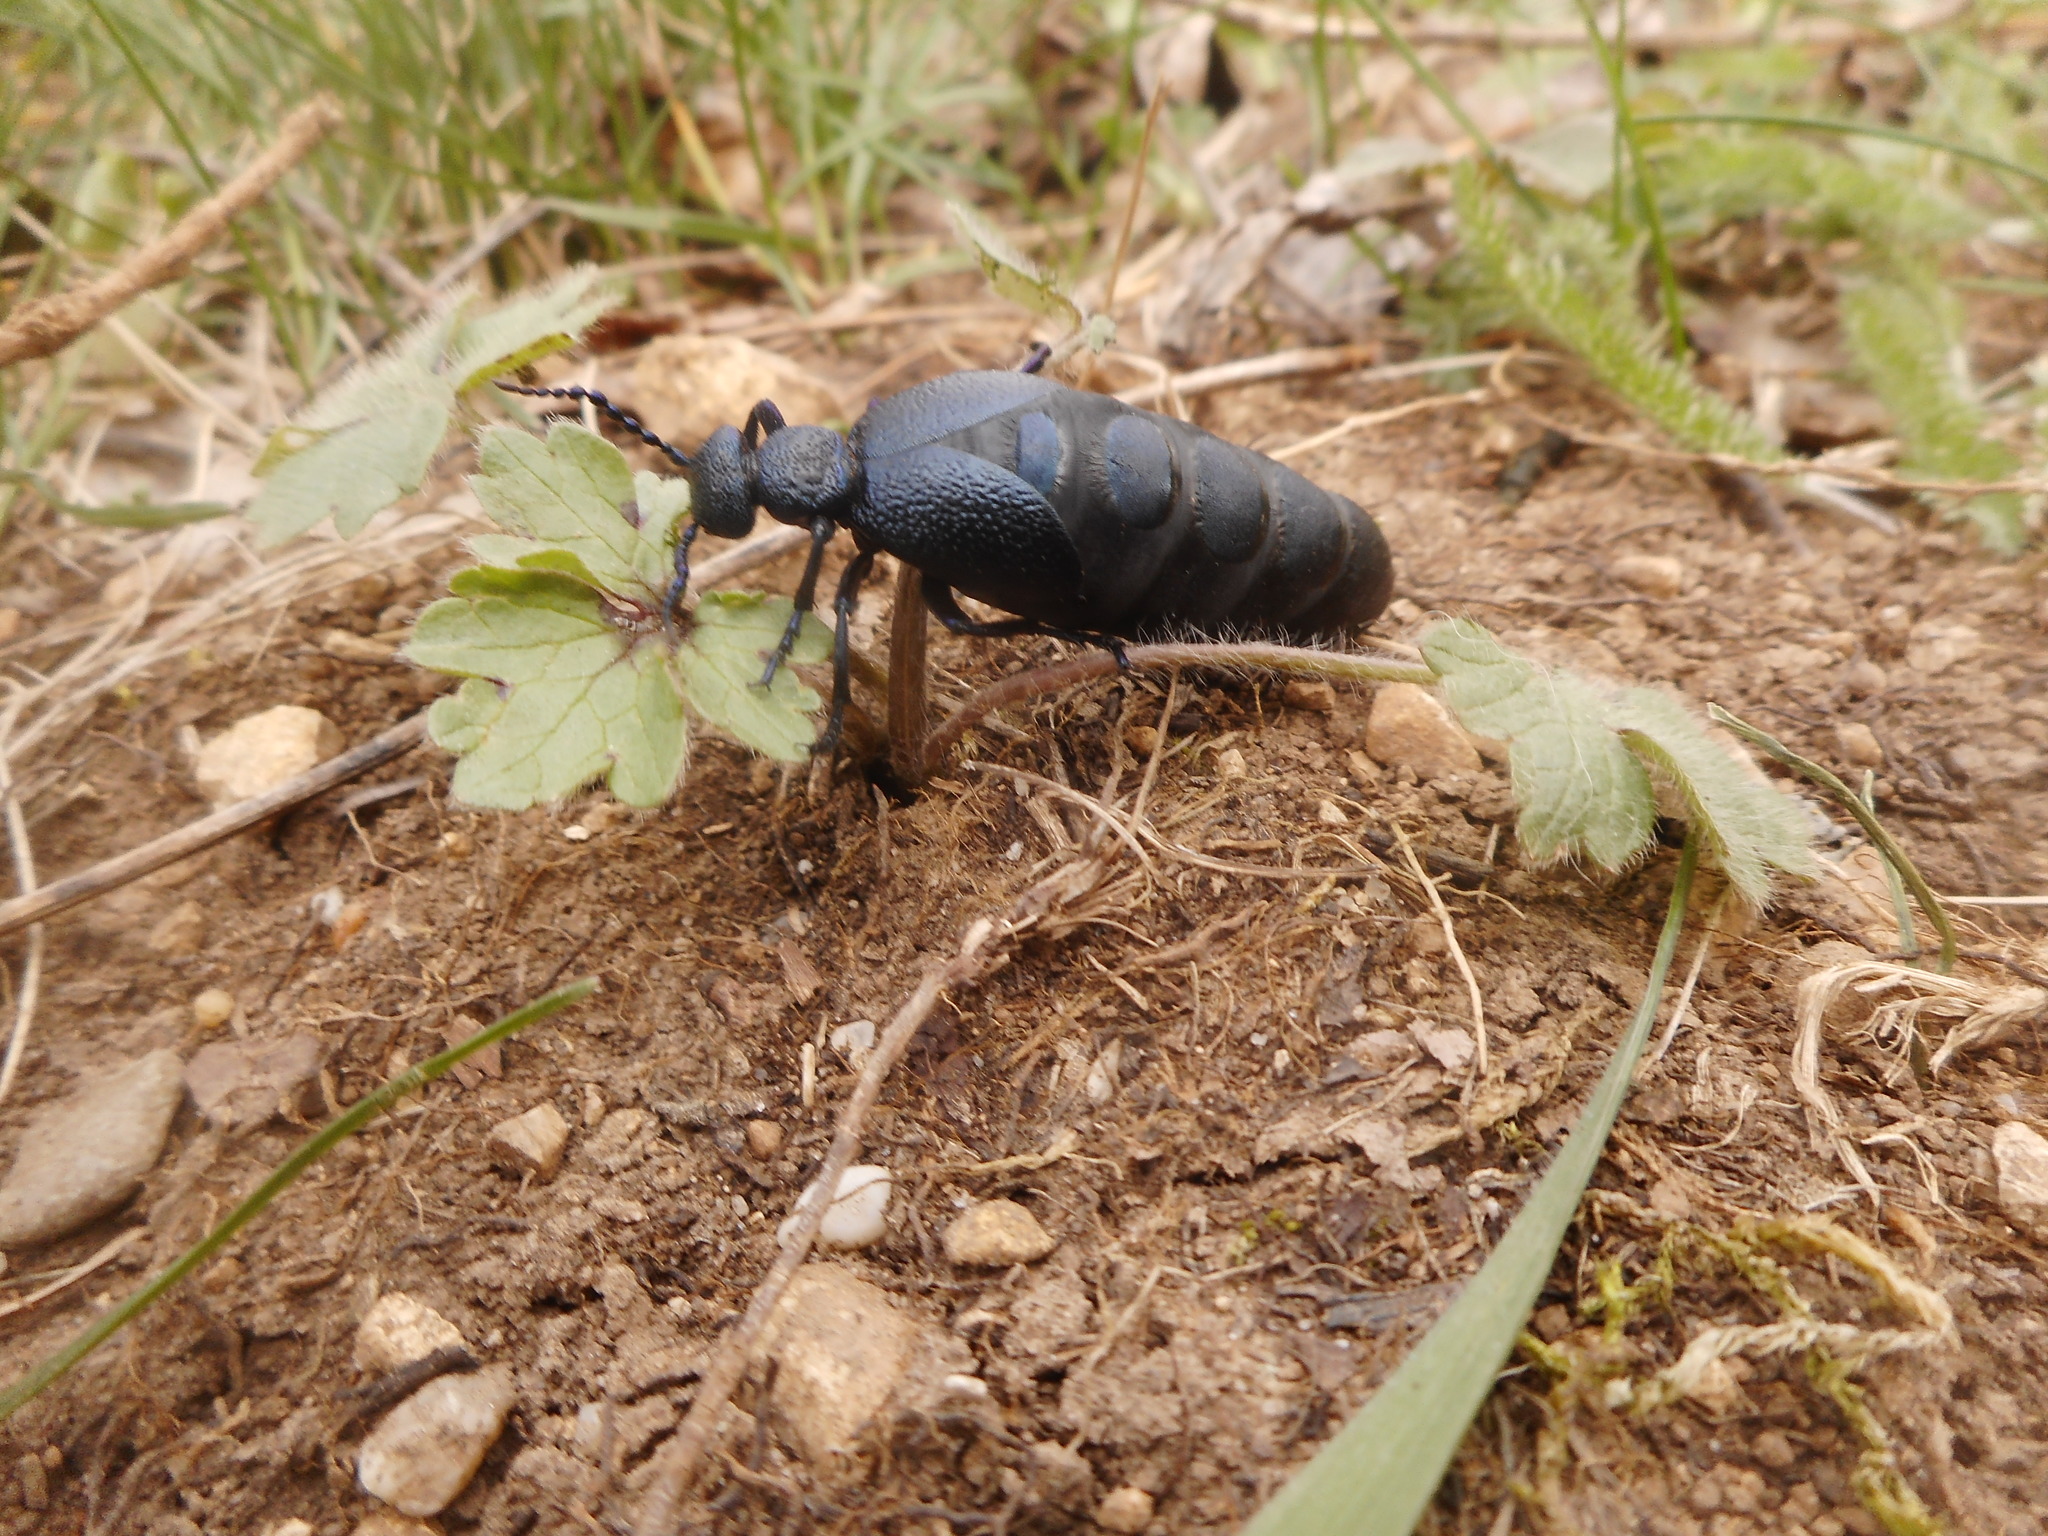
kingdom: Animalia
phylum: Arthropoda
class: Insecta
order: Coleoptera
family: Meloidae
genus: Meloe
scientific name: Meloe proscarabaeus
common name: Black oil-beetle
